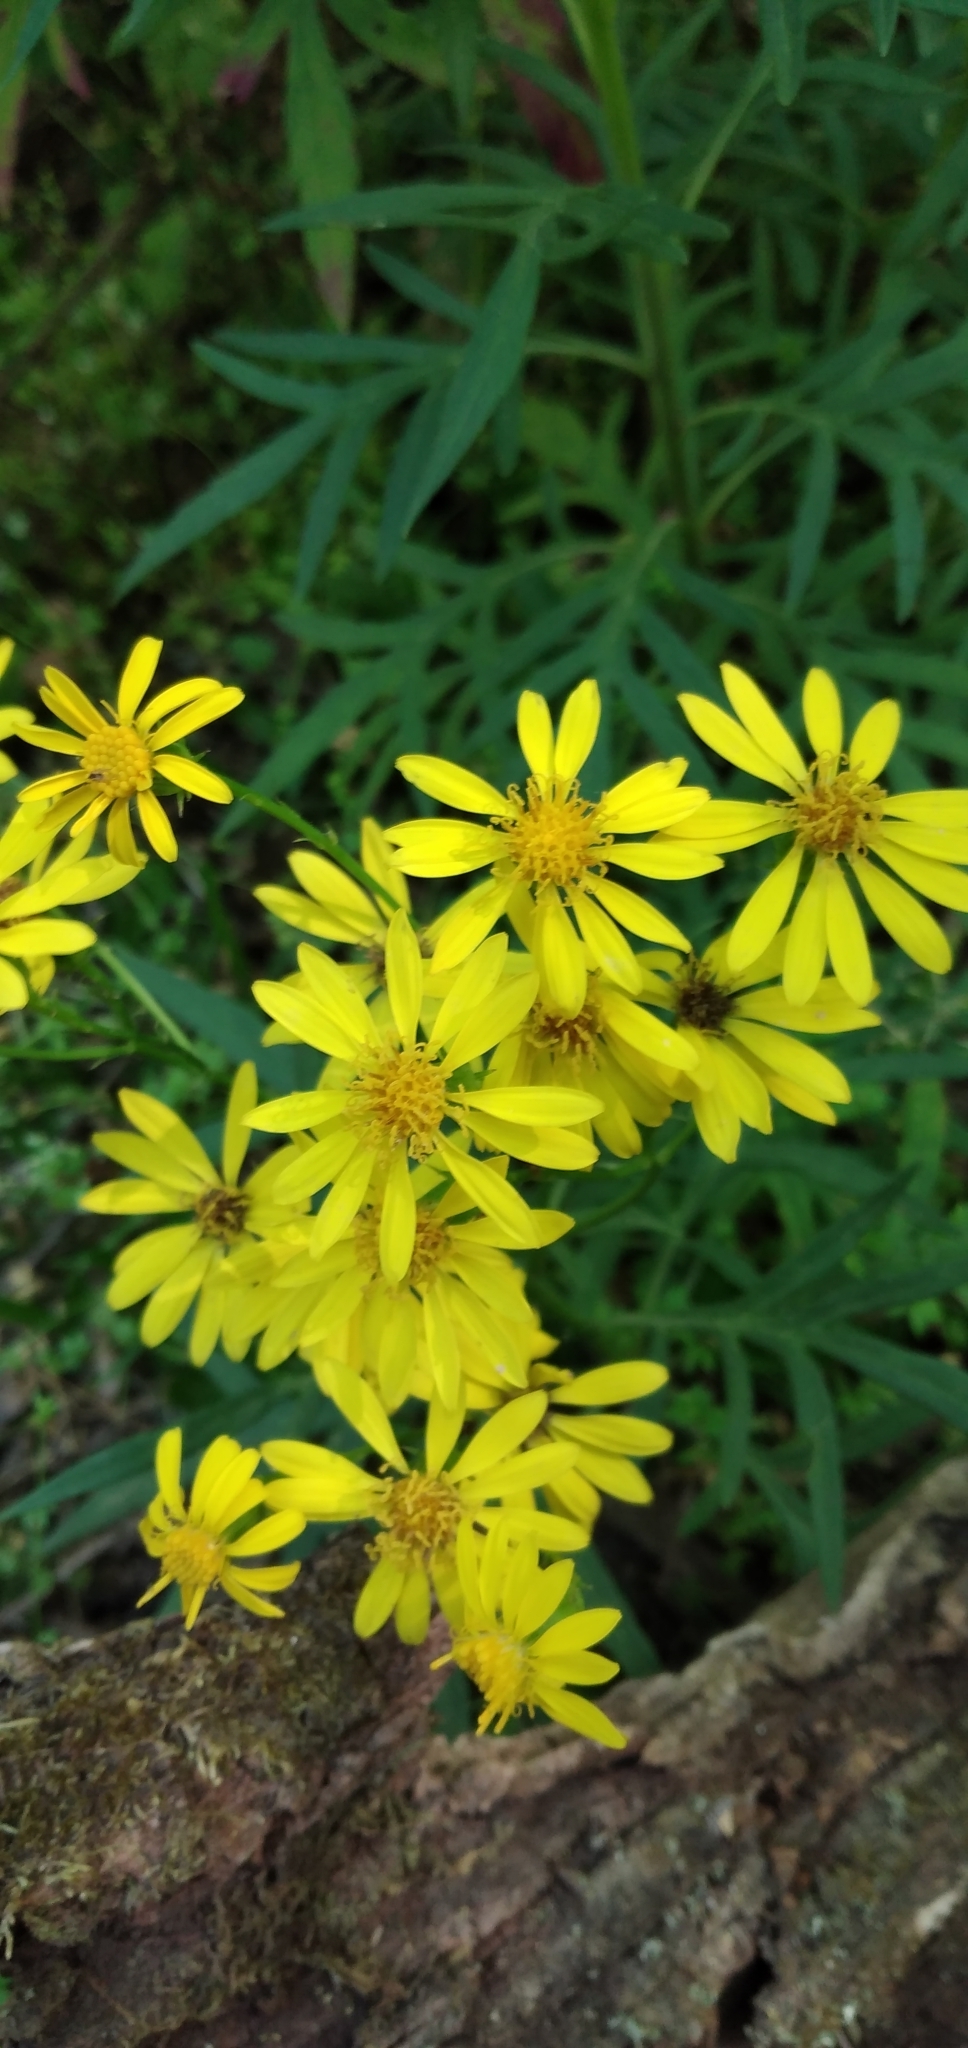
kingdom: Plantae
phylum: Tracheophyta
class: Magnoliopsida
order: Asterales
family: Asteraceae
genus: Senecio
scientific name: Senecio rudbeckiifolius
